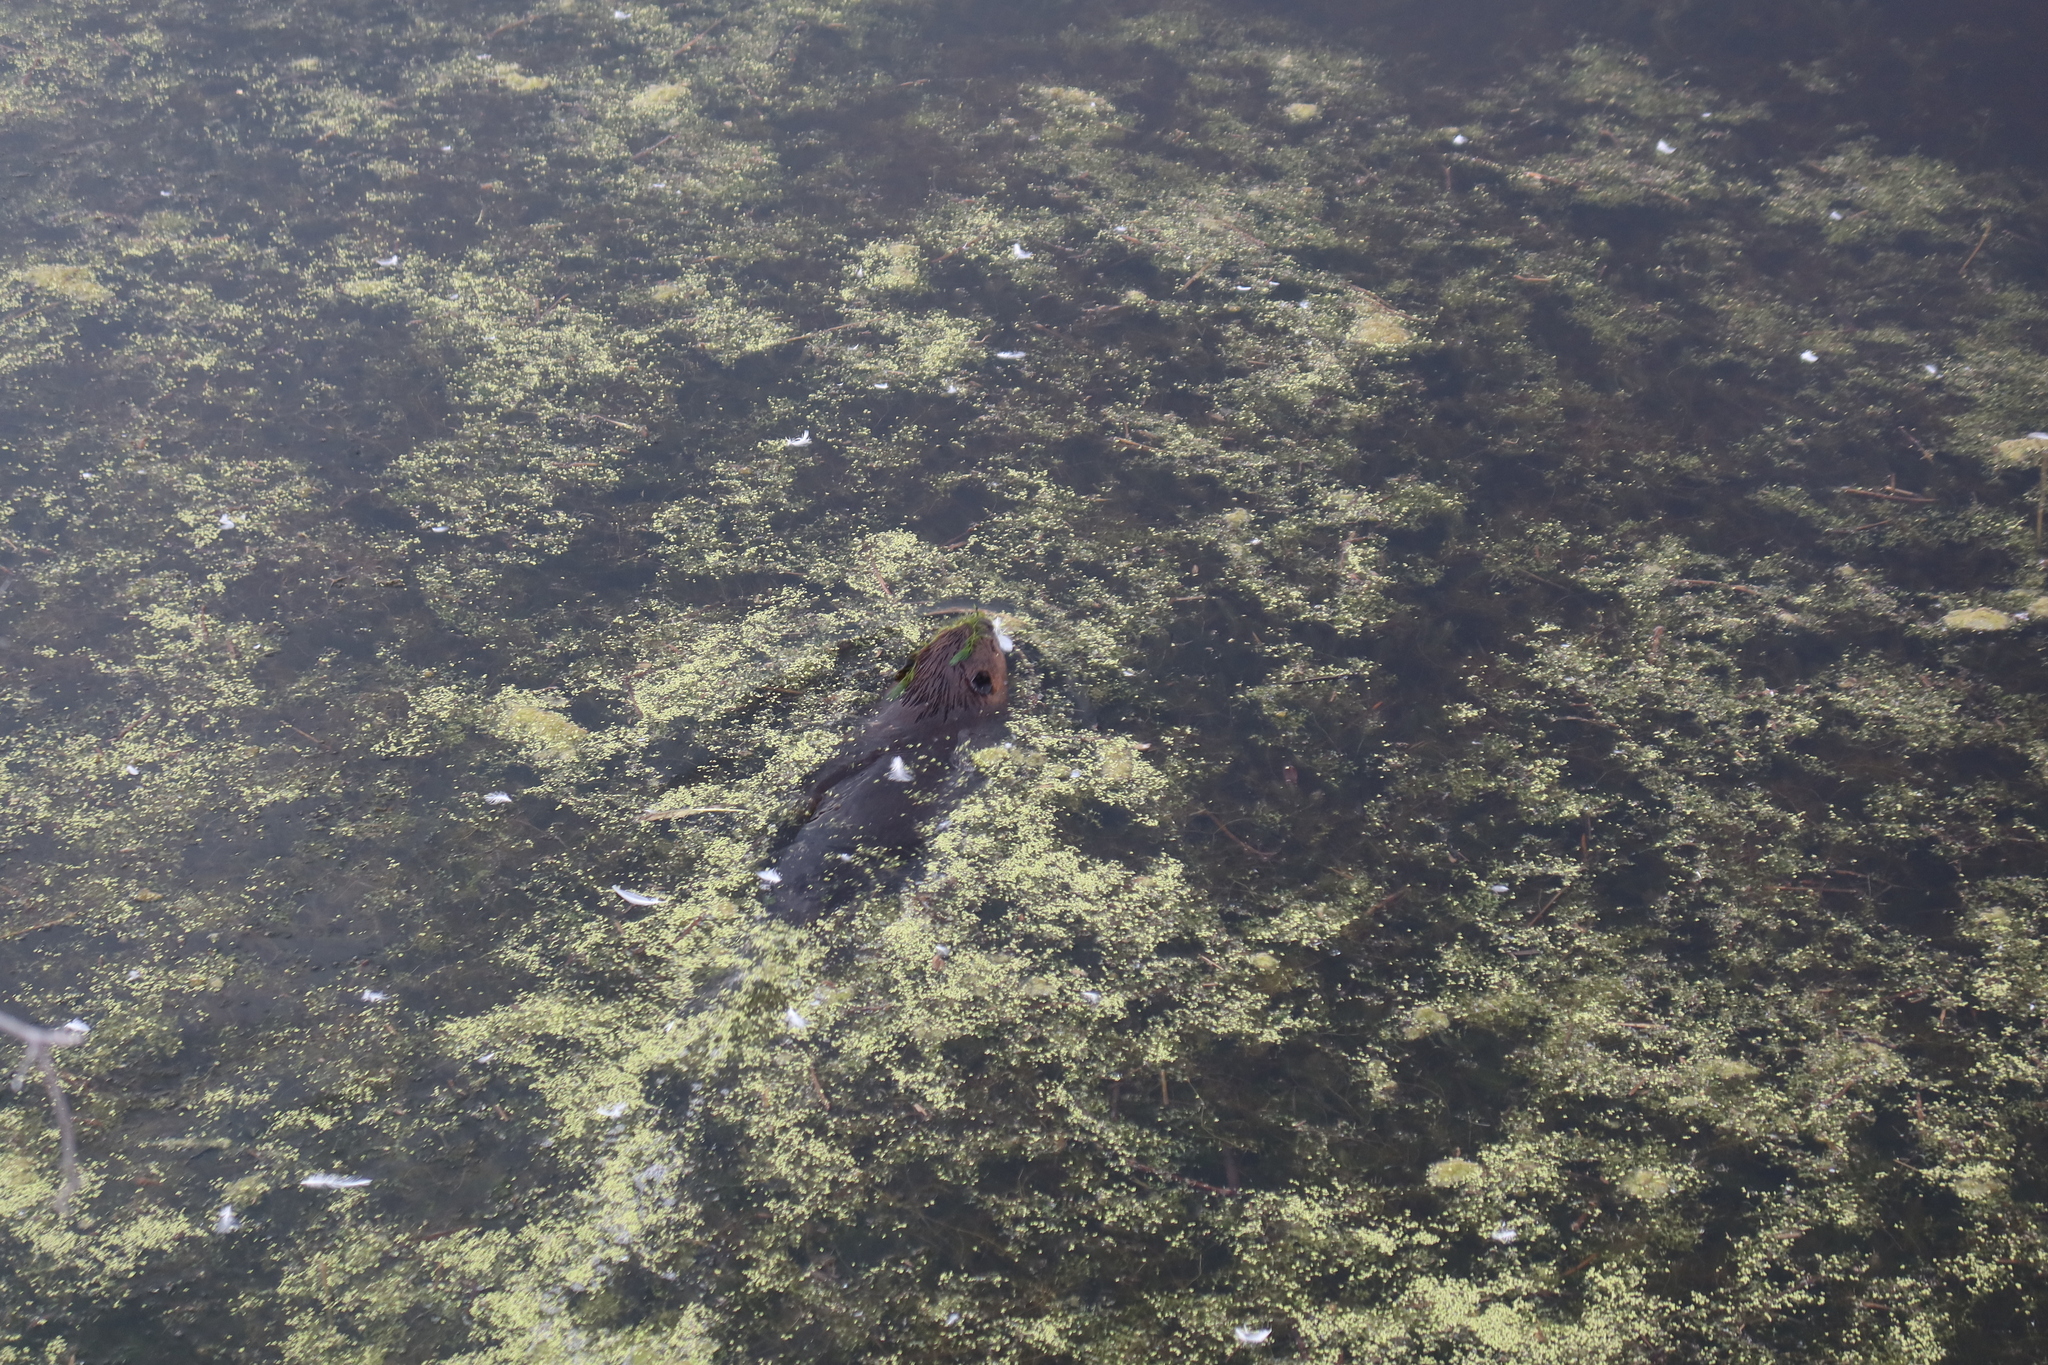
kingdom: Animalia
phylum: Chordata
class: Mammalia
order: Rodentia
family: Castoridae
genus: Castor
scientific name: Castor canadensis
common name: American beaver
